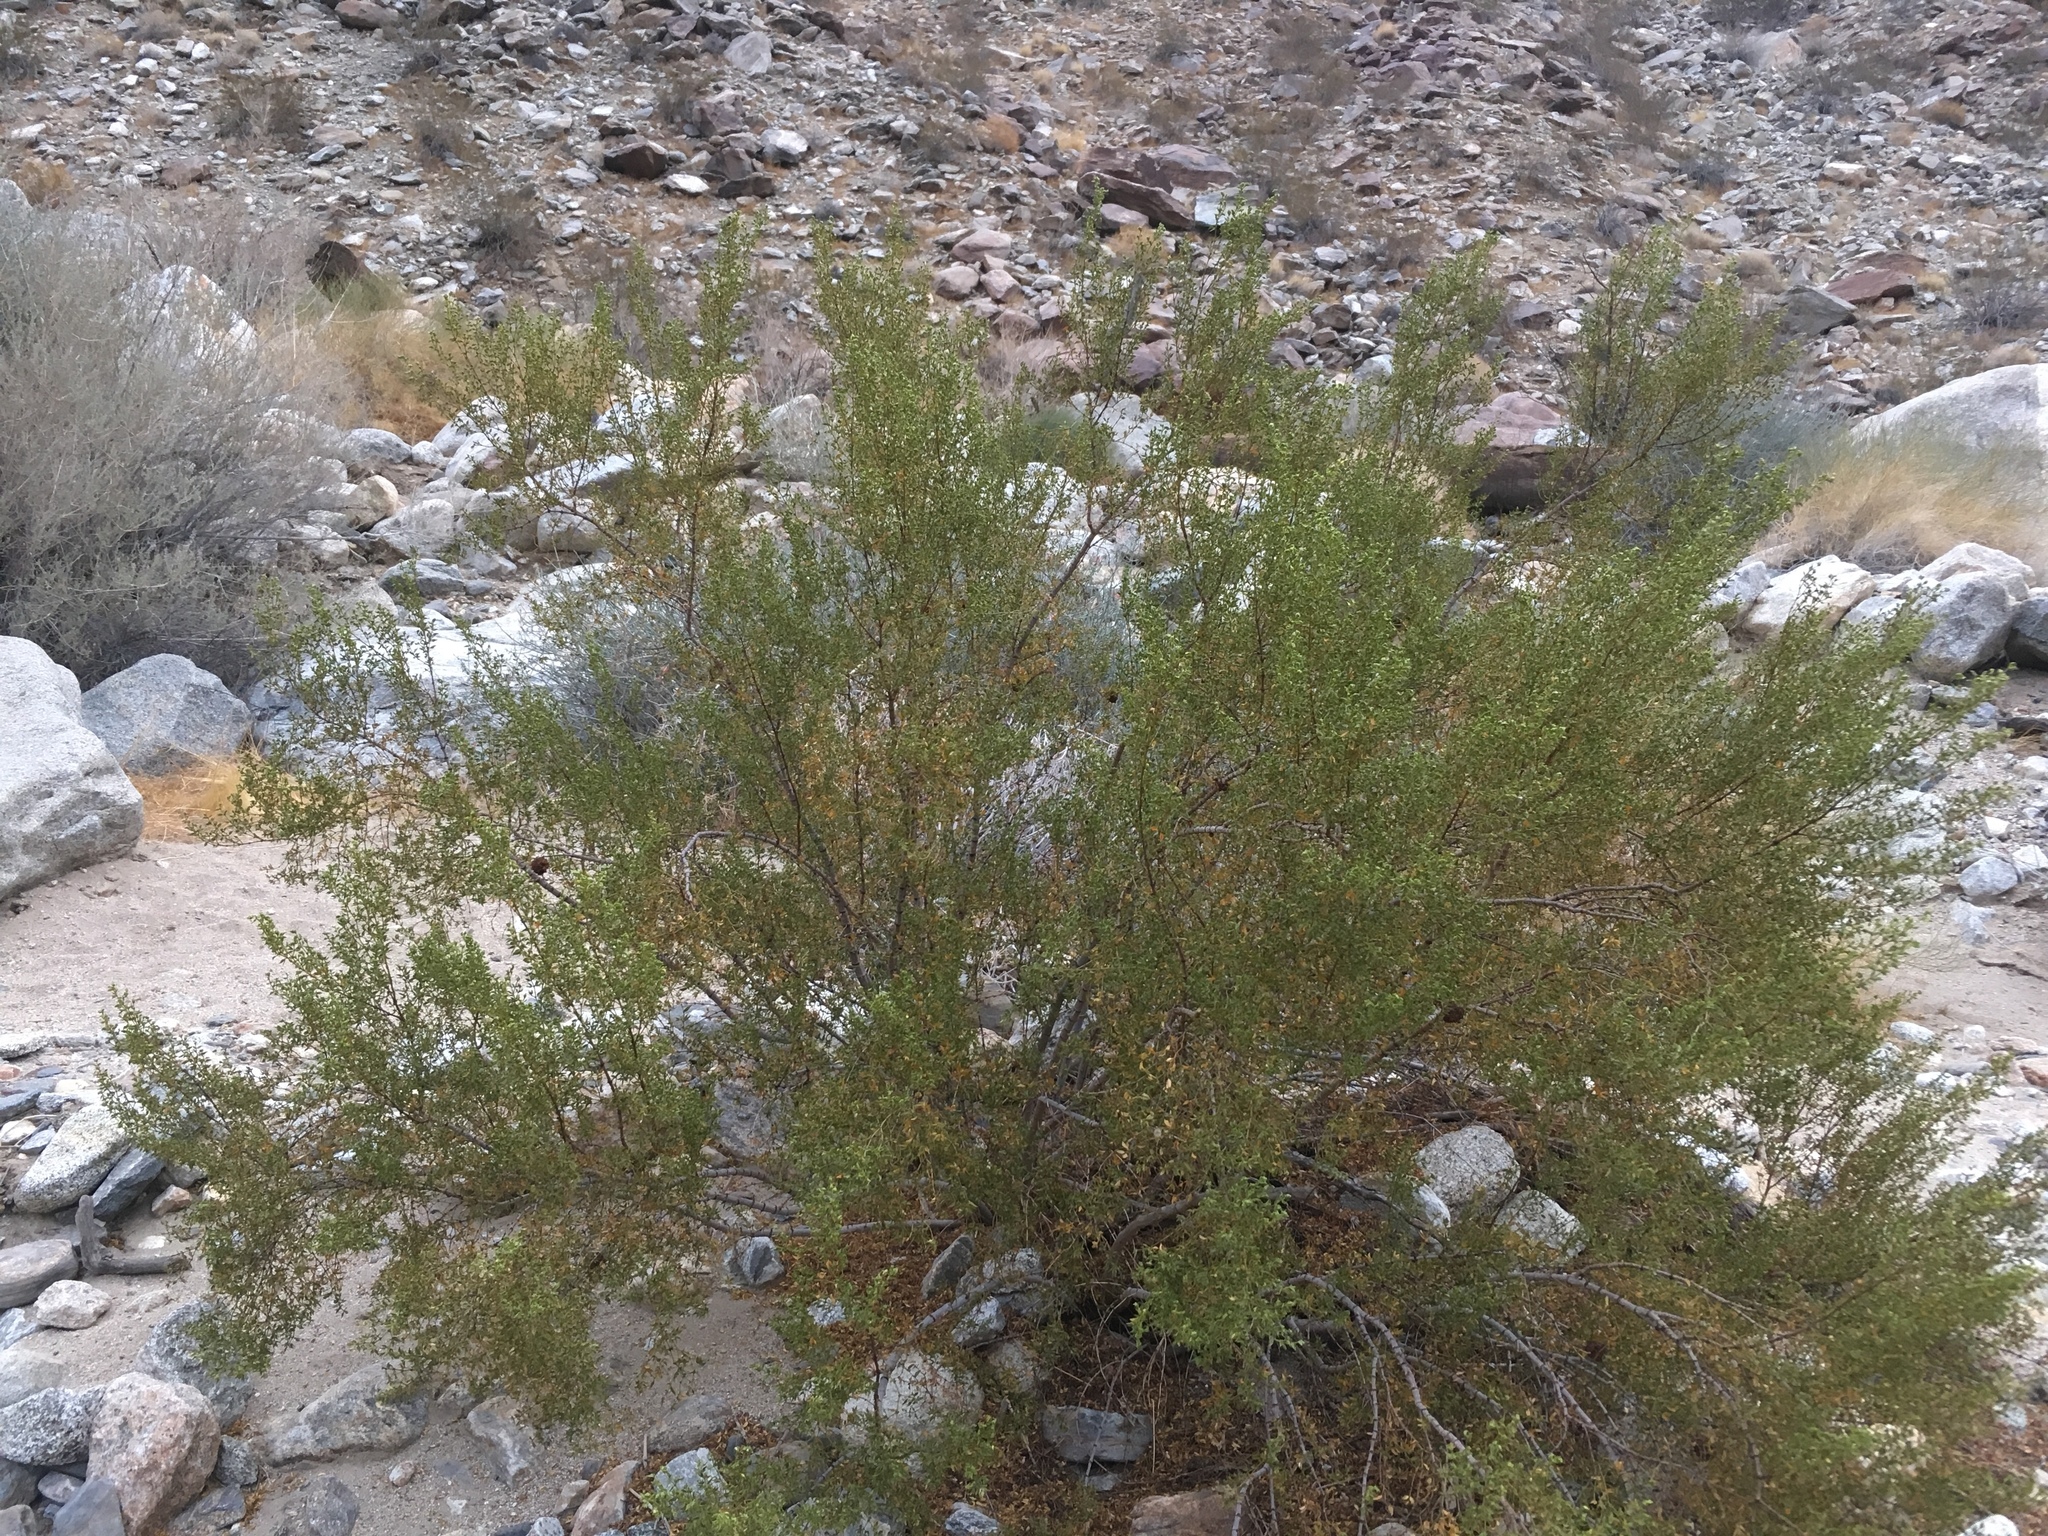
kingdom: Plantae
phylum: Tracheophyta
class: Magnoliopsida
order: Zygophyllales
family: Zygophyllaceae
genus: Larrea
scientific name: Larrea tridentata
